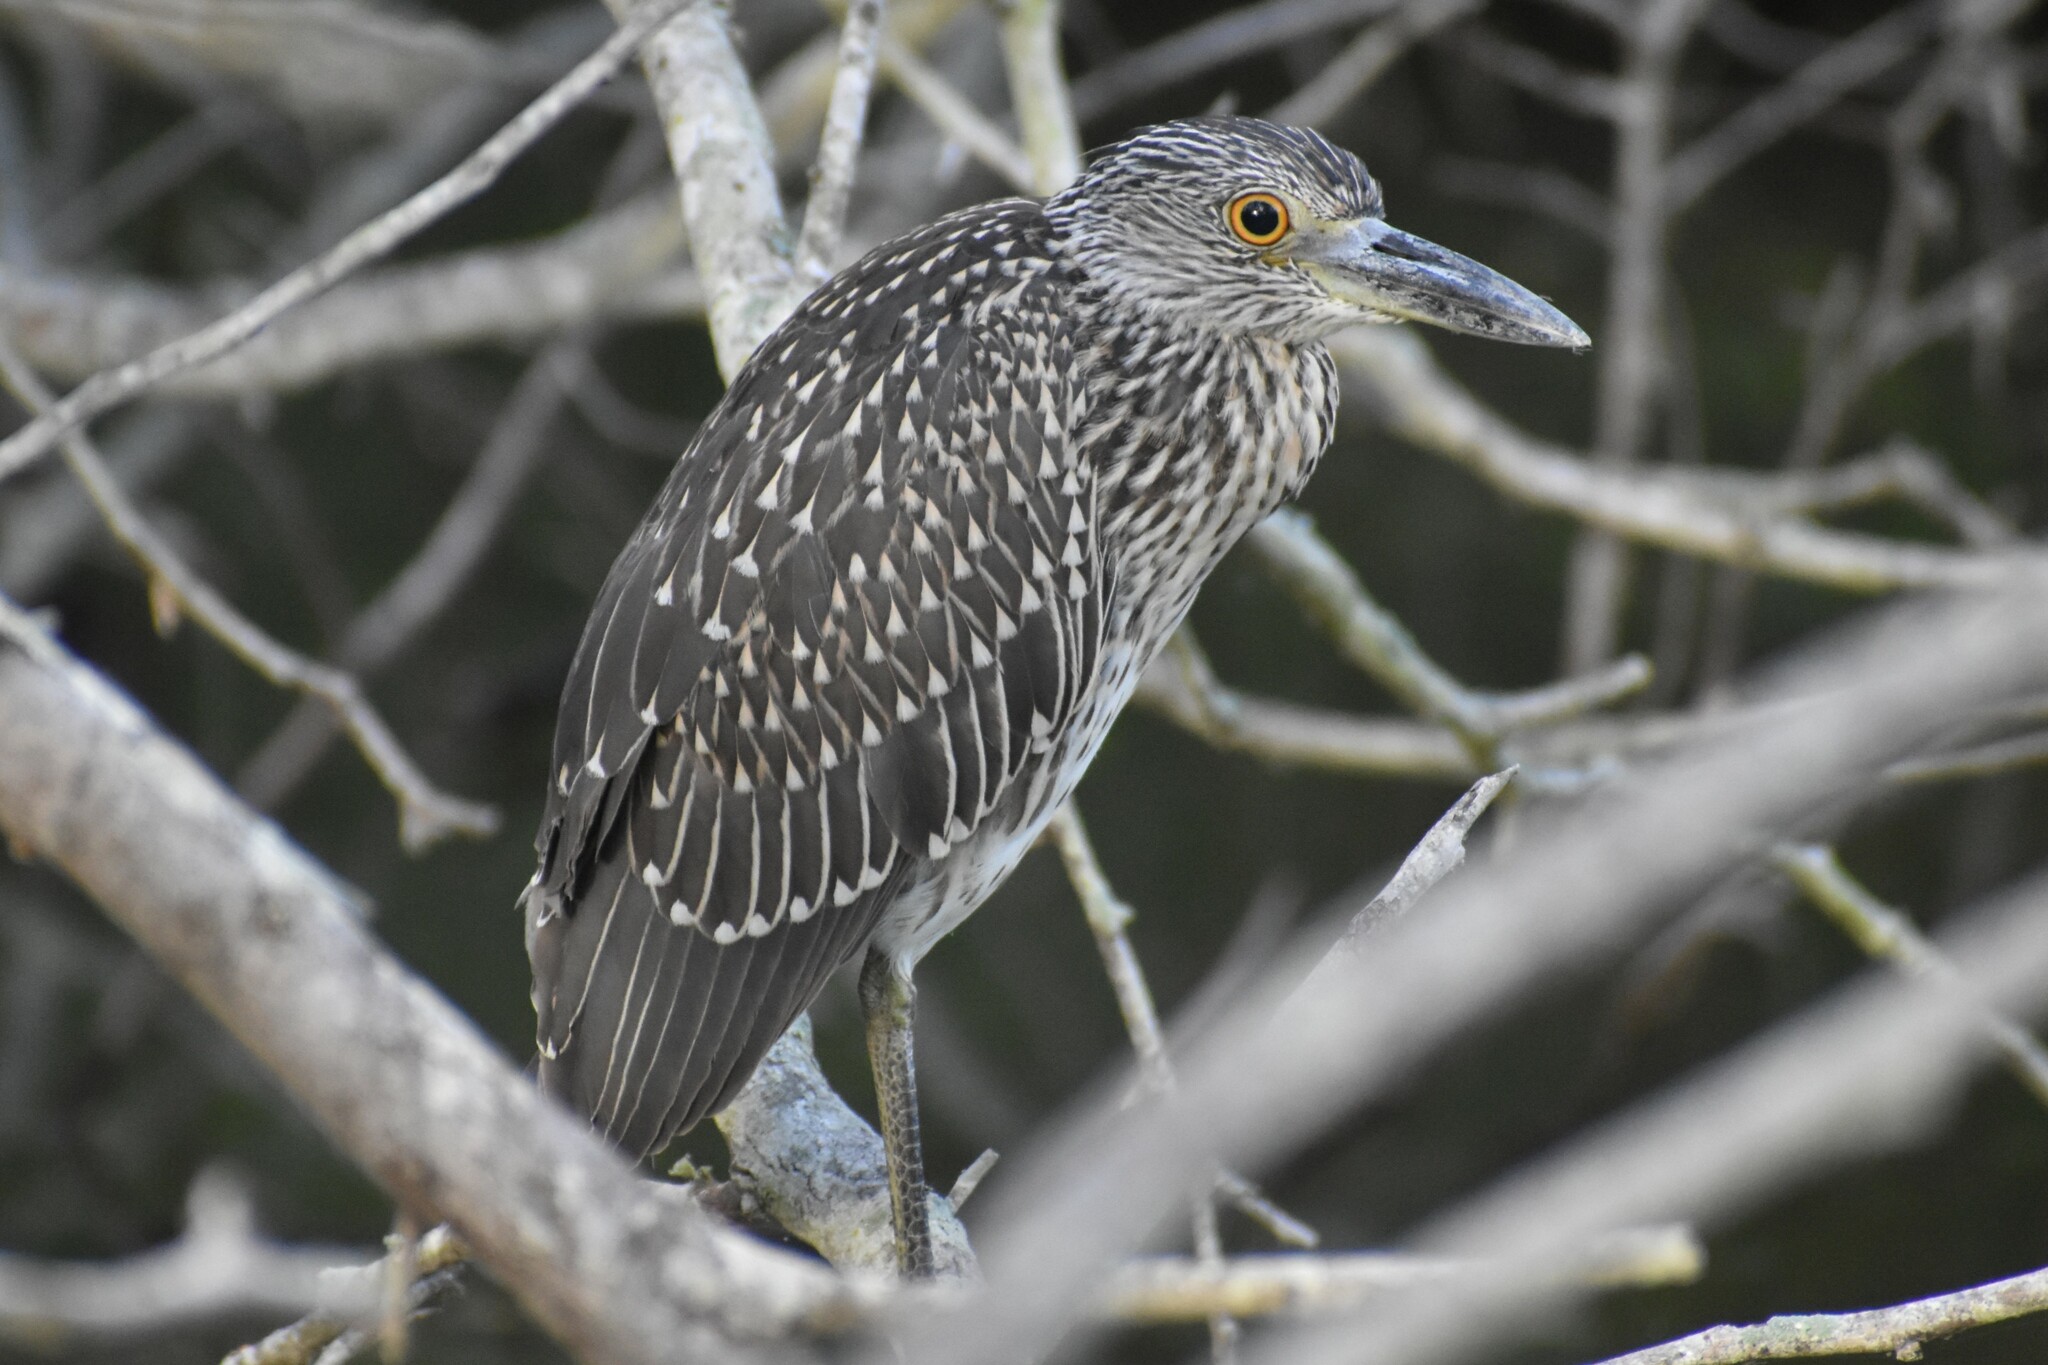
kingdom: Animalia
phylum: Chordata
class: Aves
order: Pelecaniformes
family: Ardeidae
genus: Nyctanassa
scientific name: Nyctanassa violacea
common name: Yellow-crowned night heron
